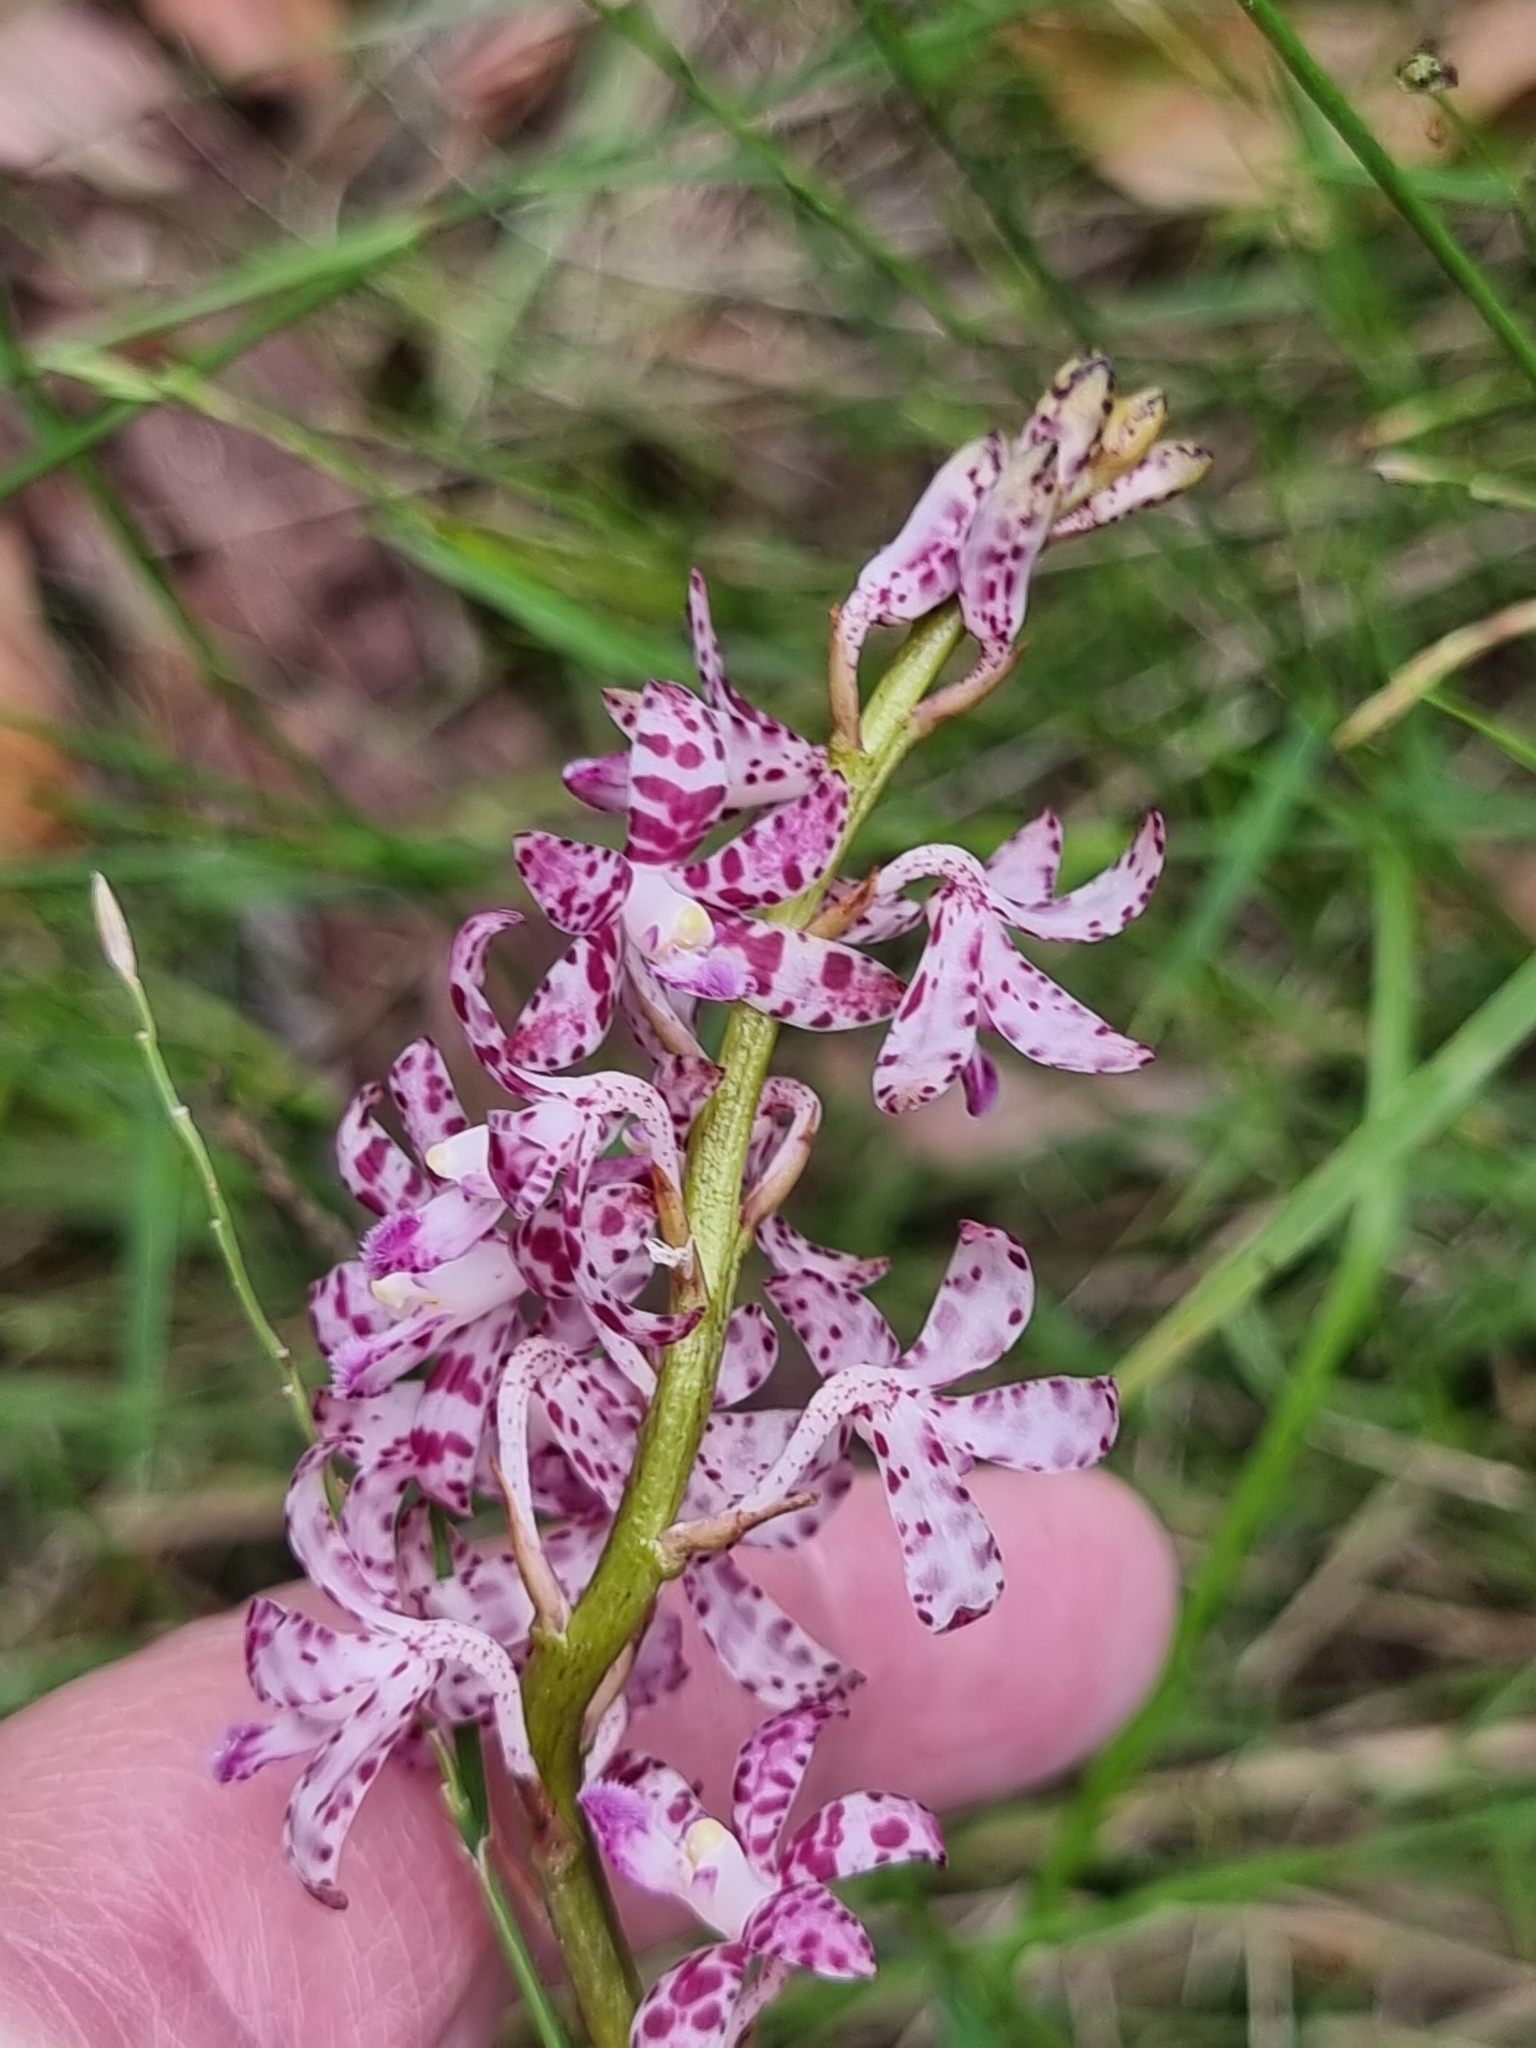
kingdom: Plantae
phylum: Tracheophyta
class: Liliopsida
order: Asparagales
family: Orchidaceae
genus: Dipodium
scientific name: Dipodium variegatum
